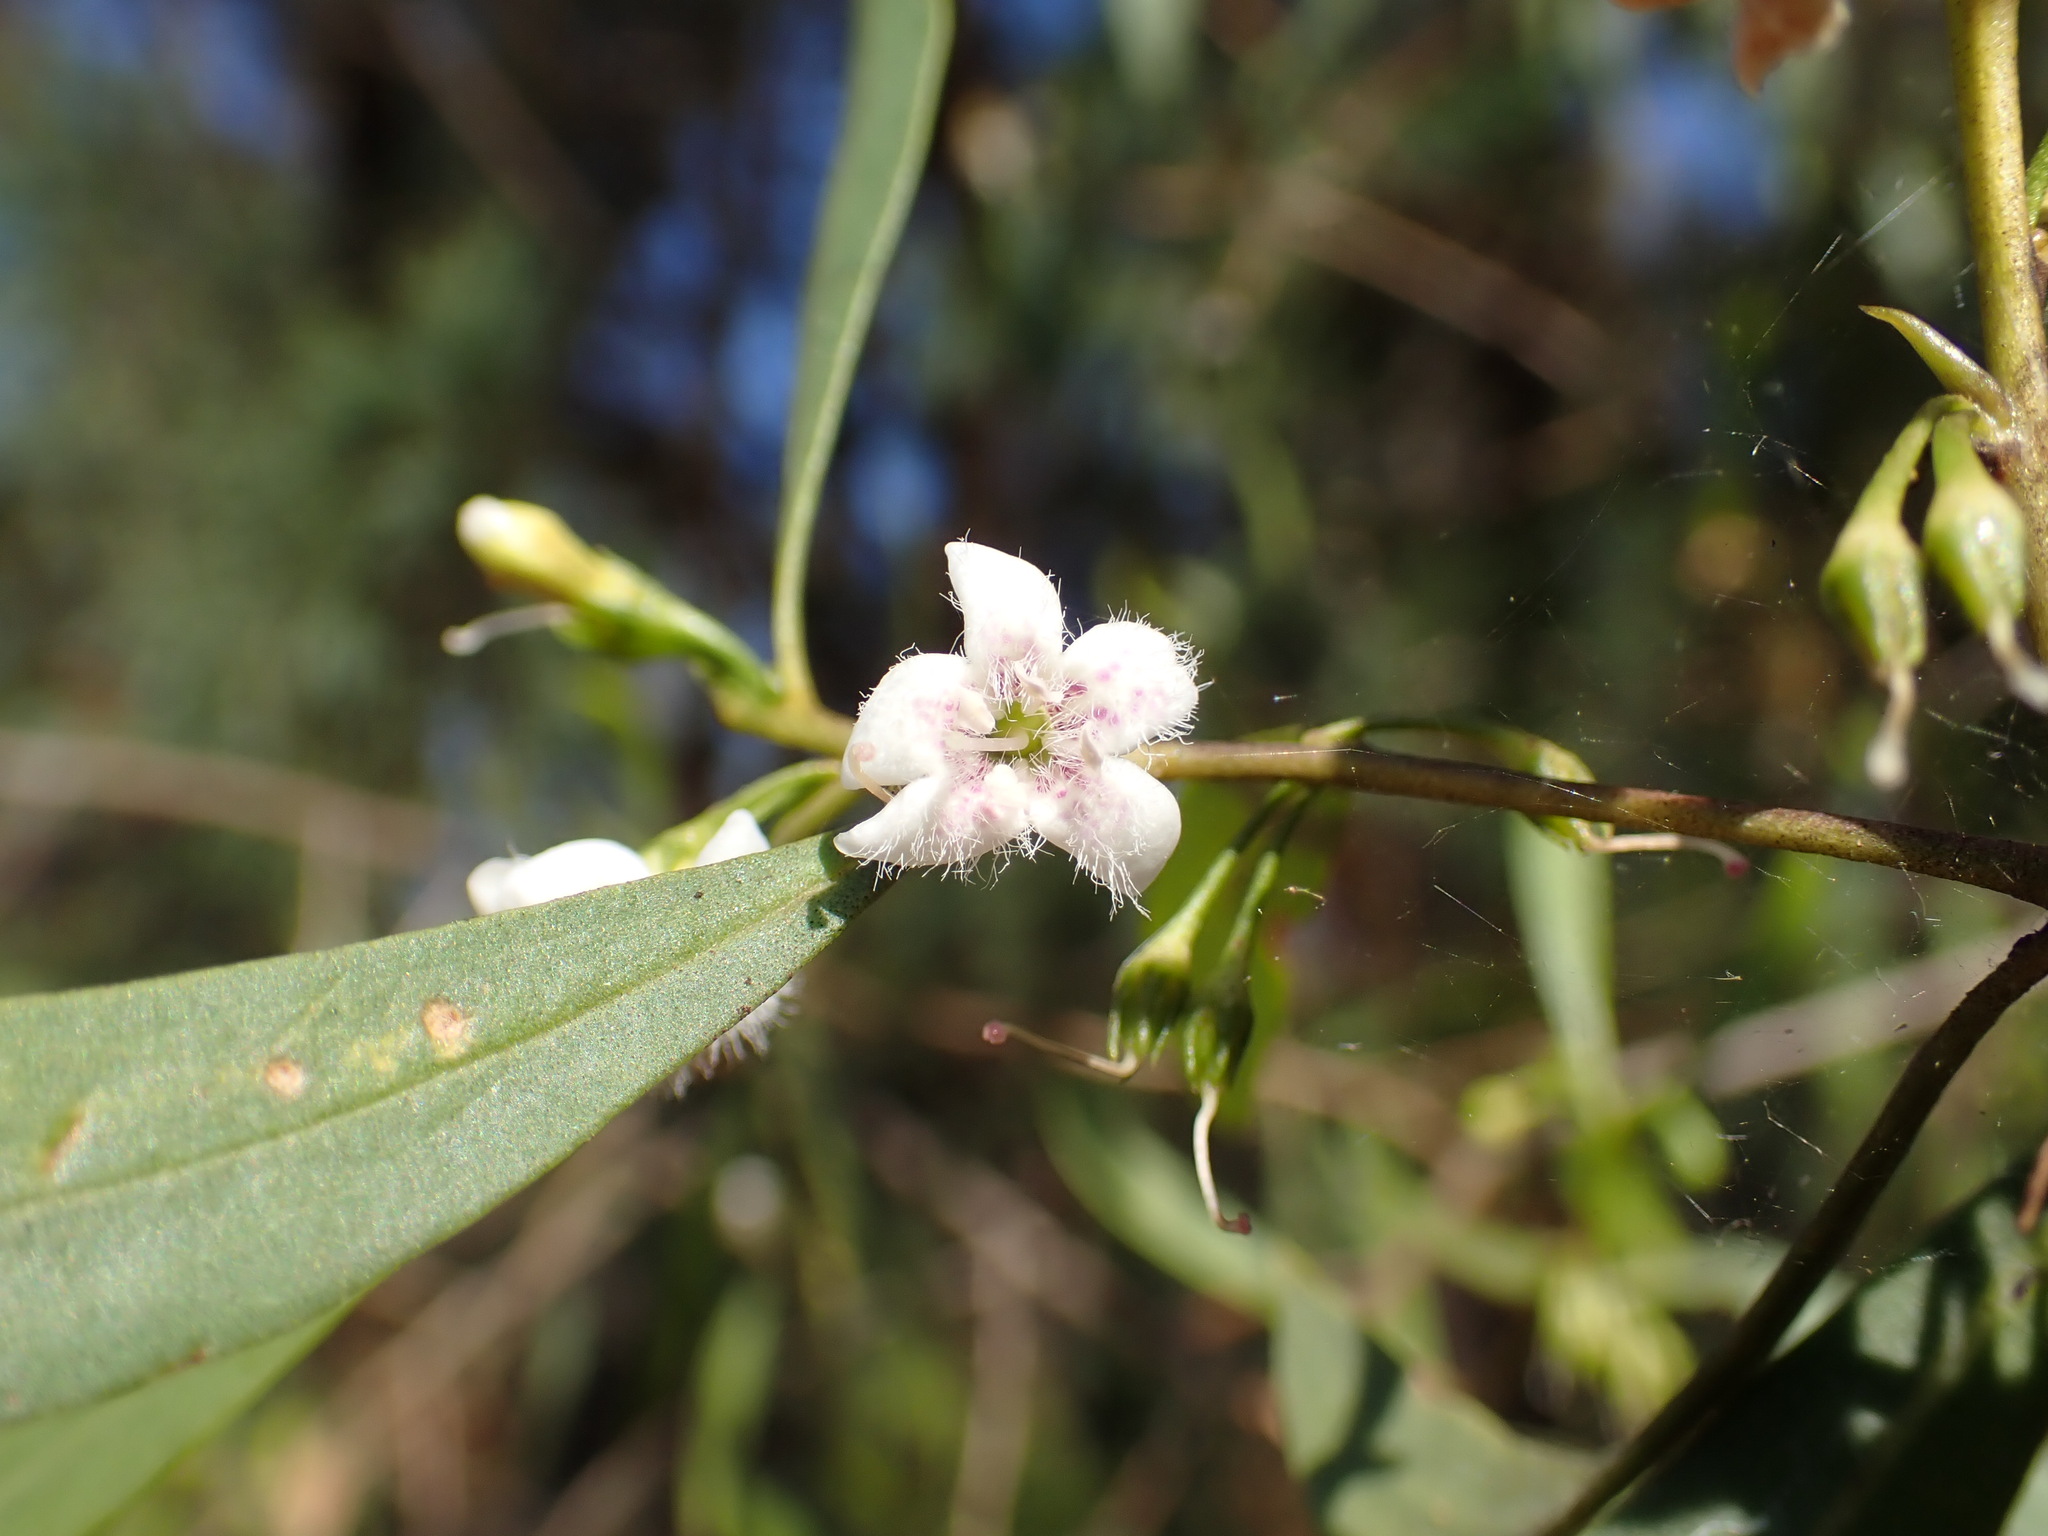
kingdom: Plantae
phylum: Tracheophyta
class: Magnoliopsida
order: Lamiales
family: Scrophulariaceae
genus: Myoporum
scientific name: Myoporum montanum
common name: Waterbush
